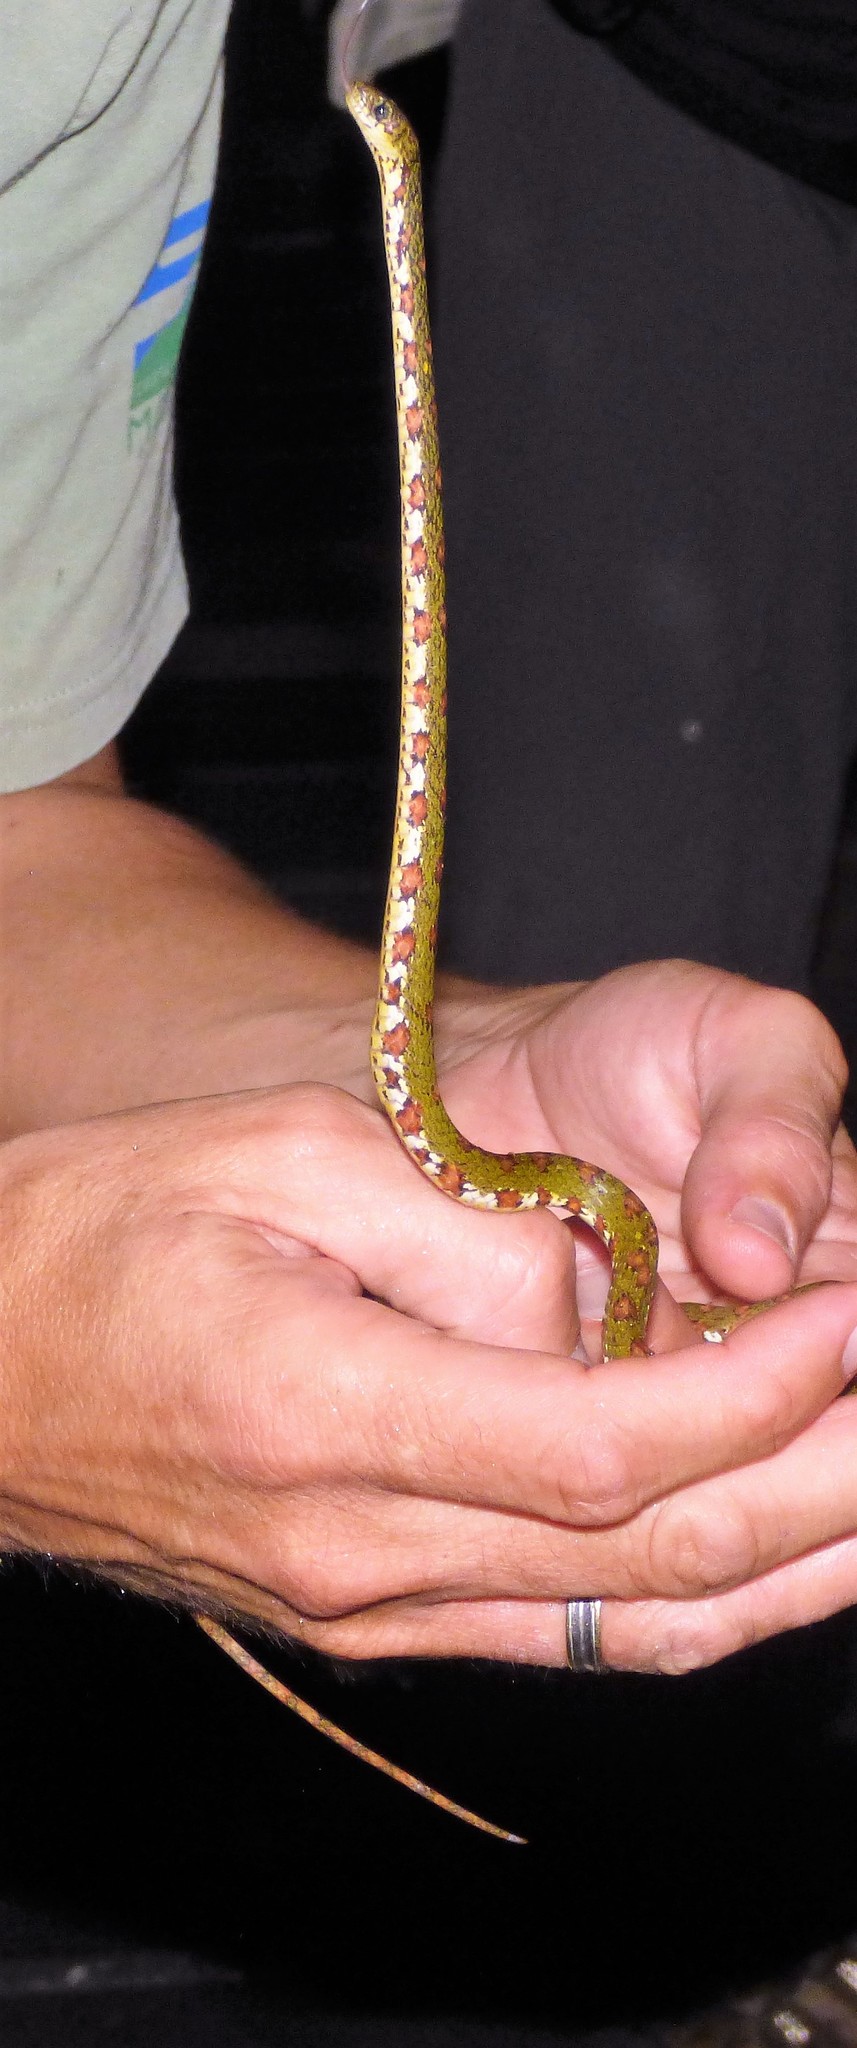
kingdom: Animalia
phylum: Chordata
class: Squamata
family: Colubridae
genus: Sibon
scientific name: Sibon longifrenis
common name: Stejneger's snail sucker
